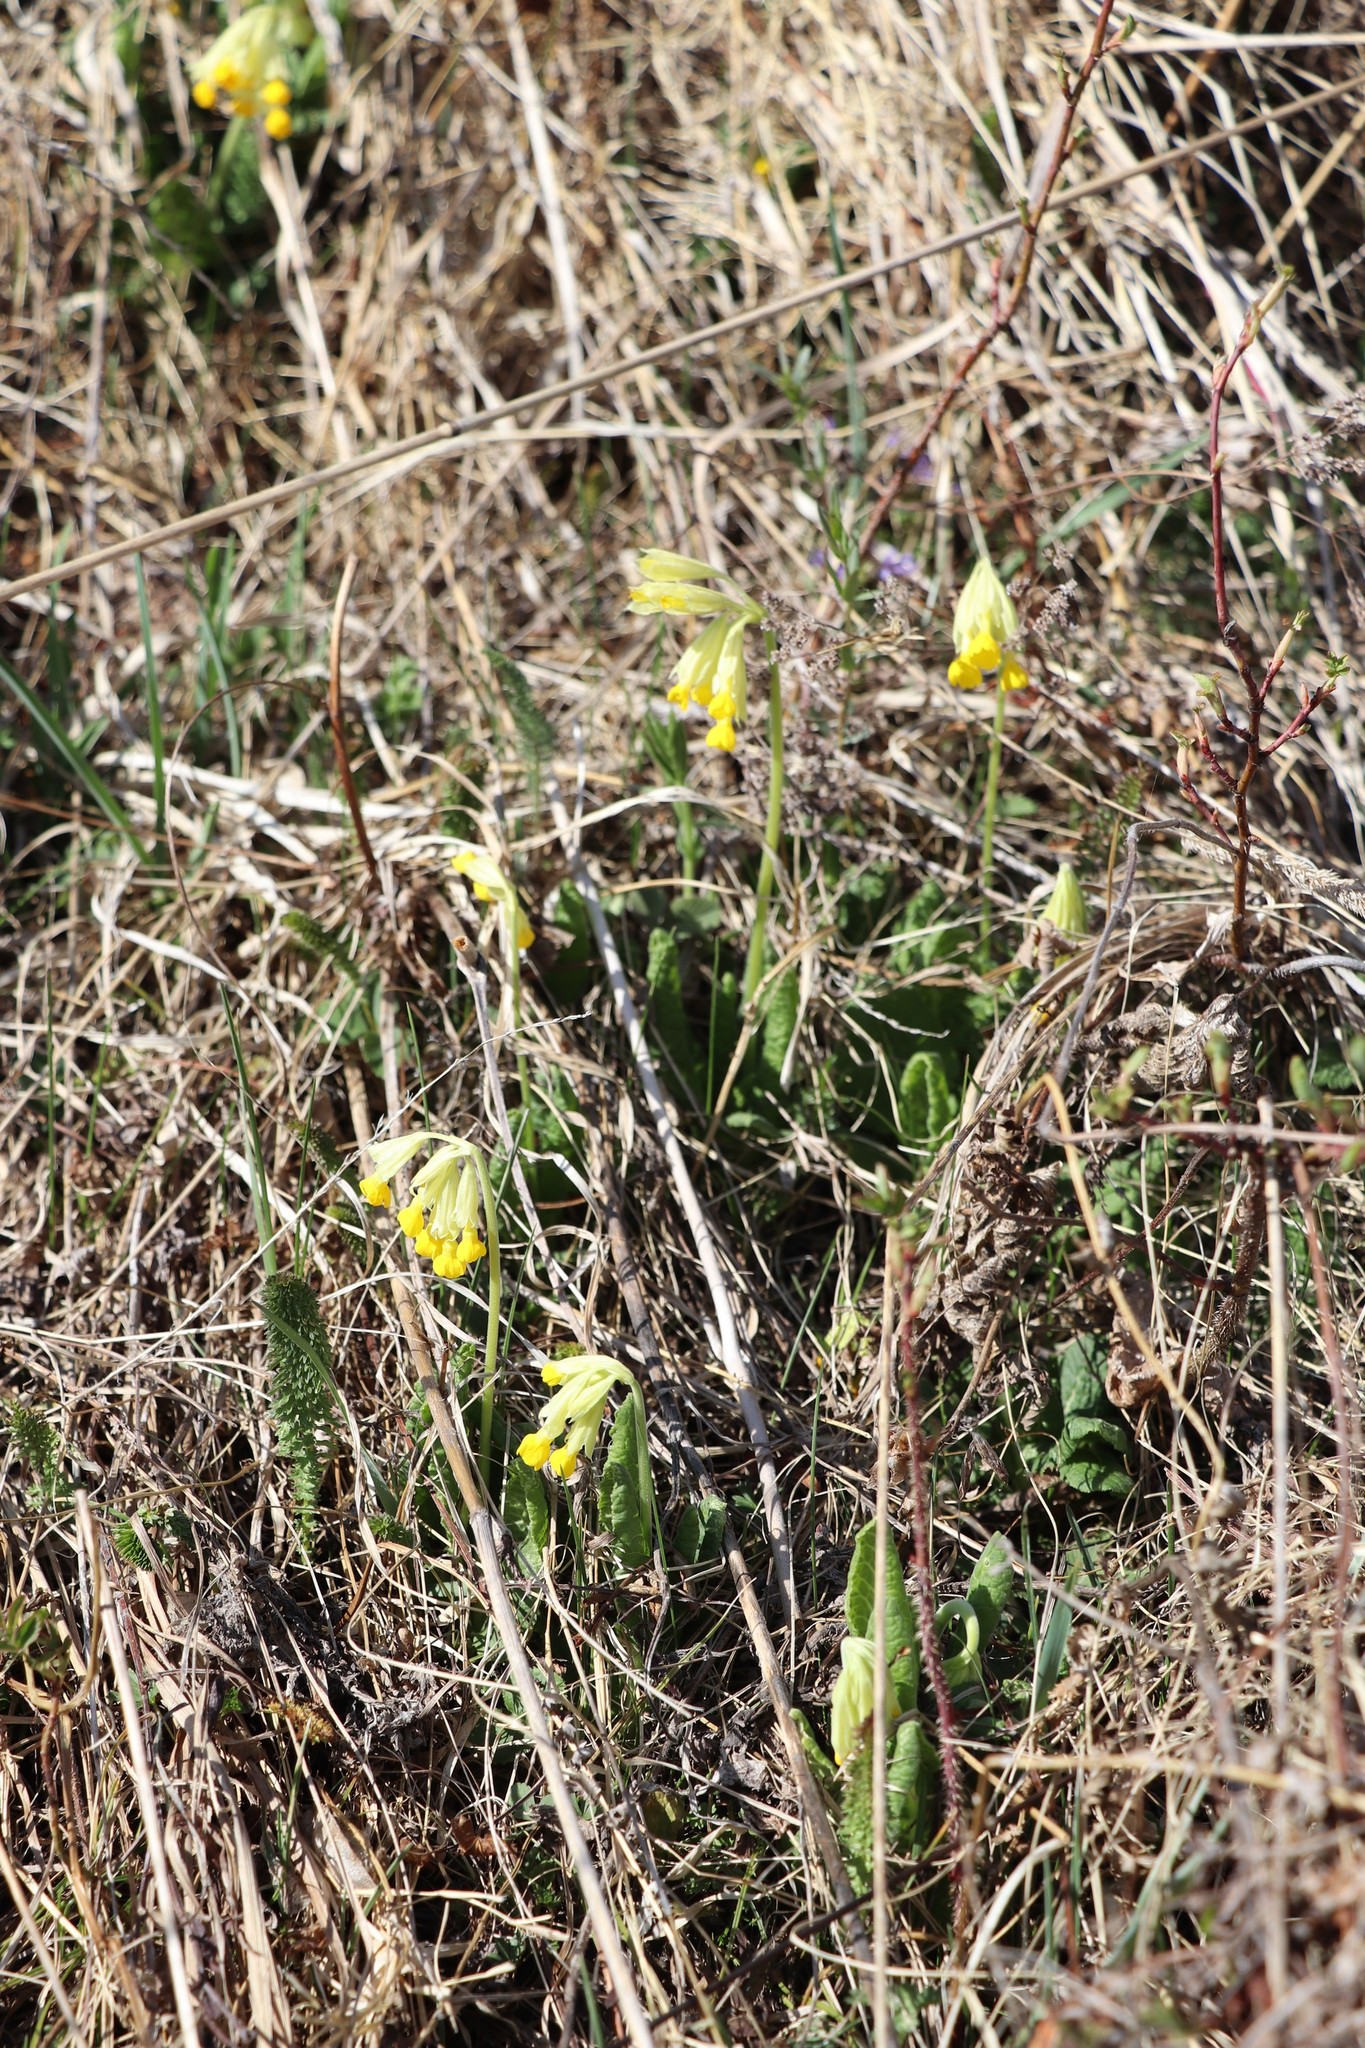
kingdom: Plantae
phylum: Tracheophyta
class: Magnoliopsida
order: Ericales
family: Primulaceae
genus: Primula
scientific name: Primula veris
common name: Cowslip
